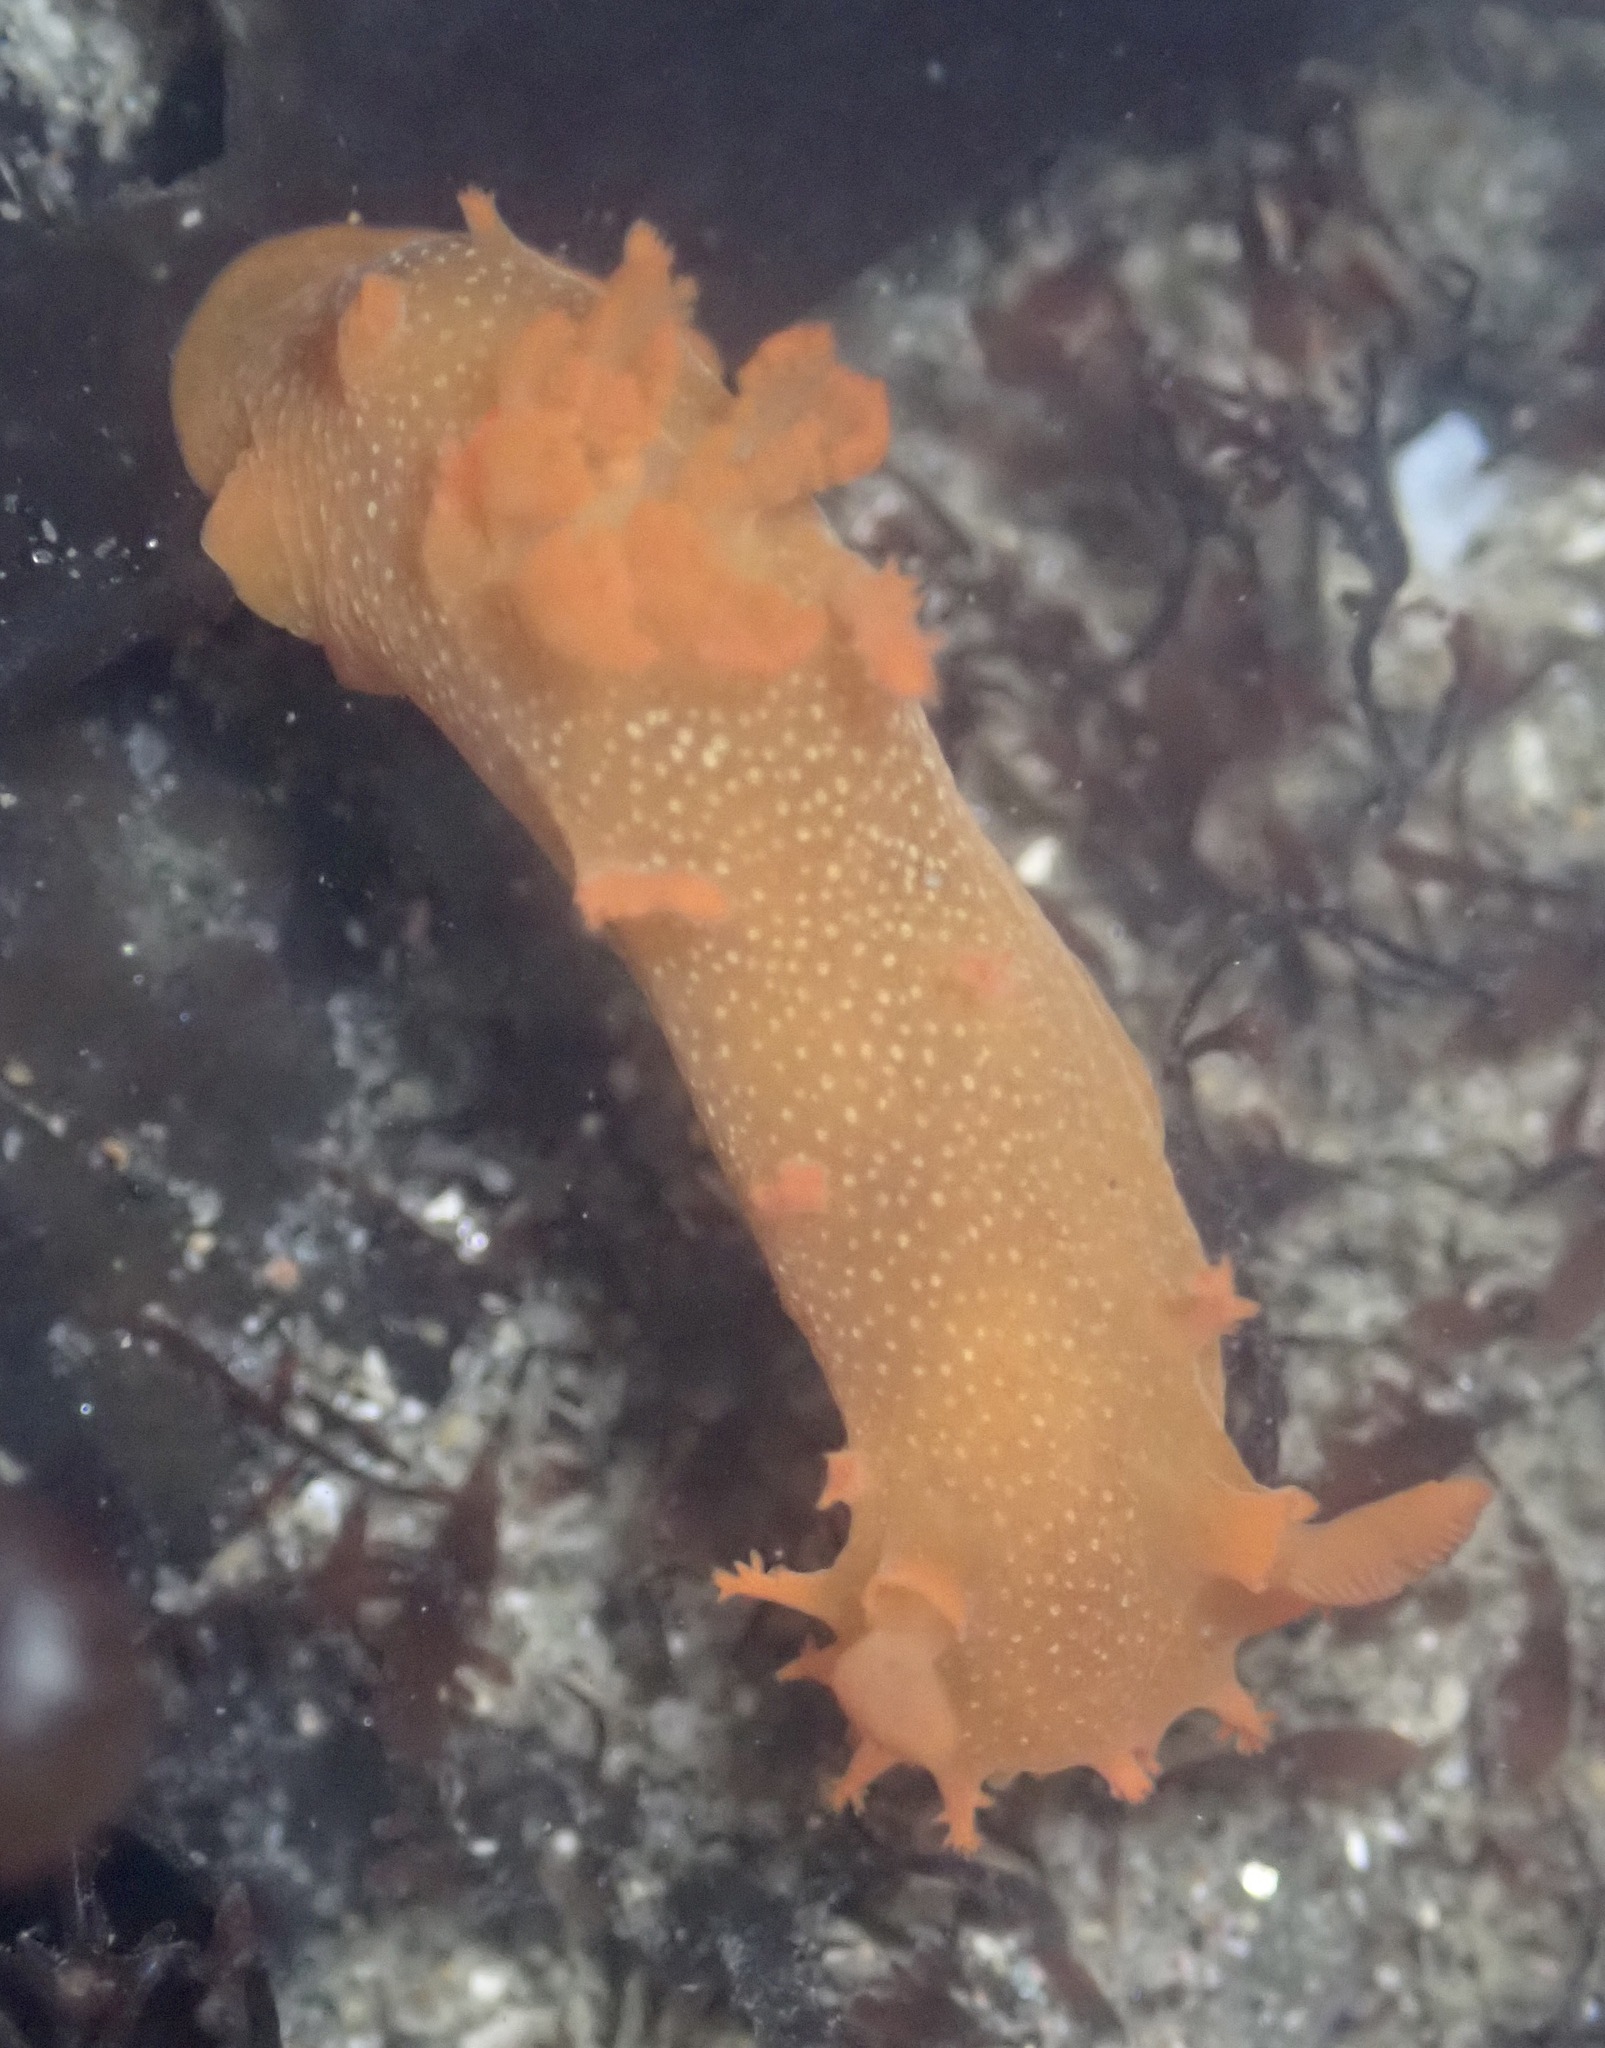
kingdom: Animalia
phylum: Mollusca
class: Gastropoda
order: Nudibranchia
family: Polyceridae
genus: Triopha
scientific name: Triopha maculata
